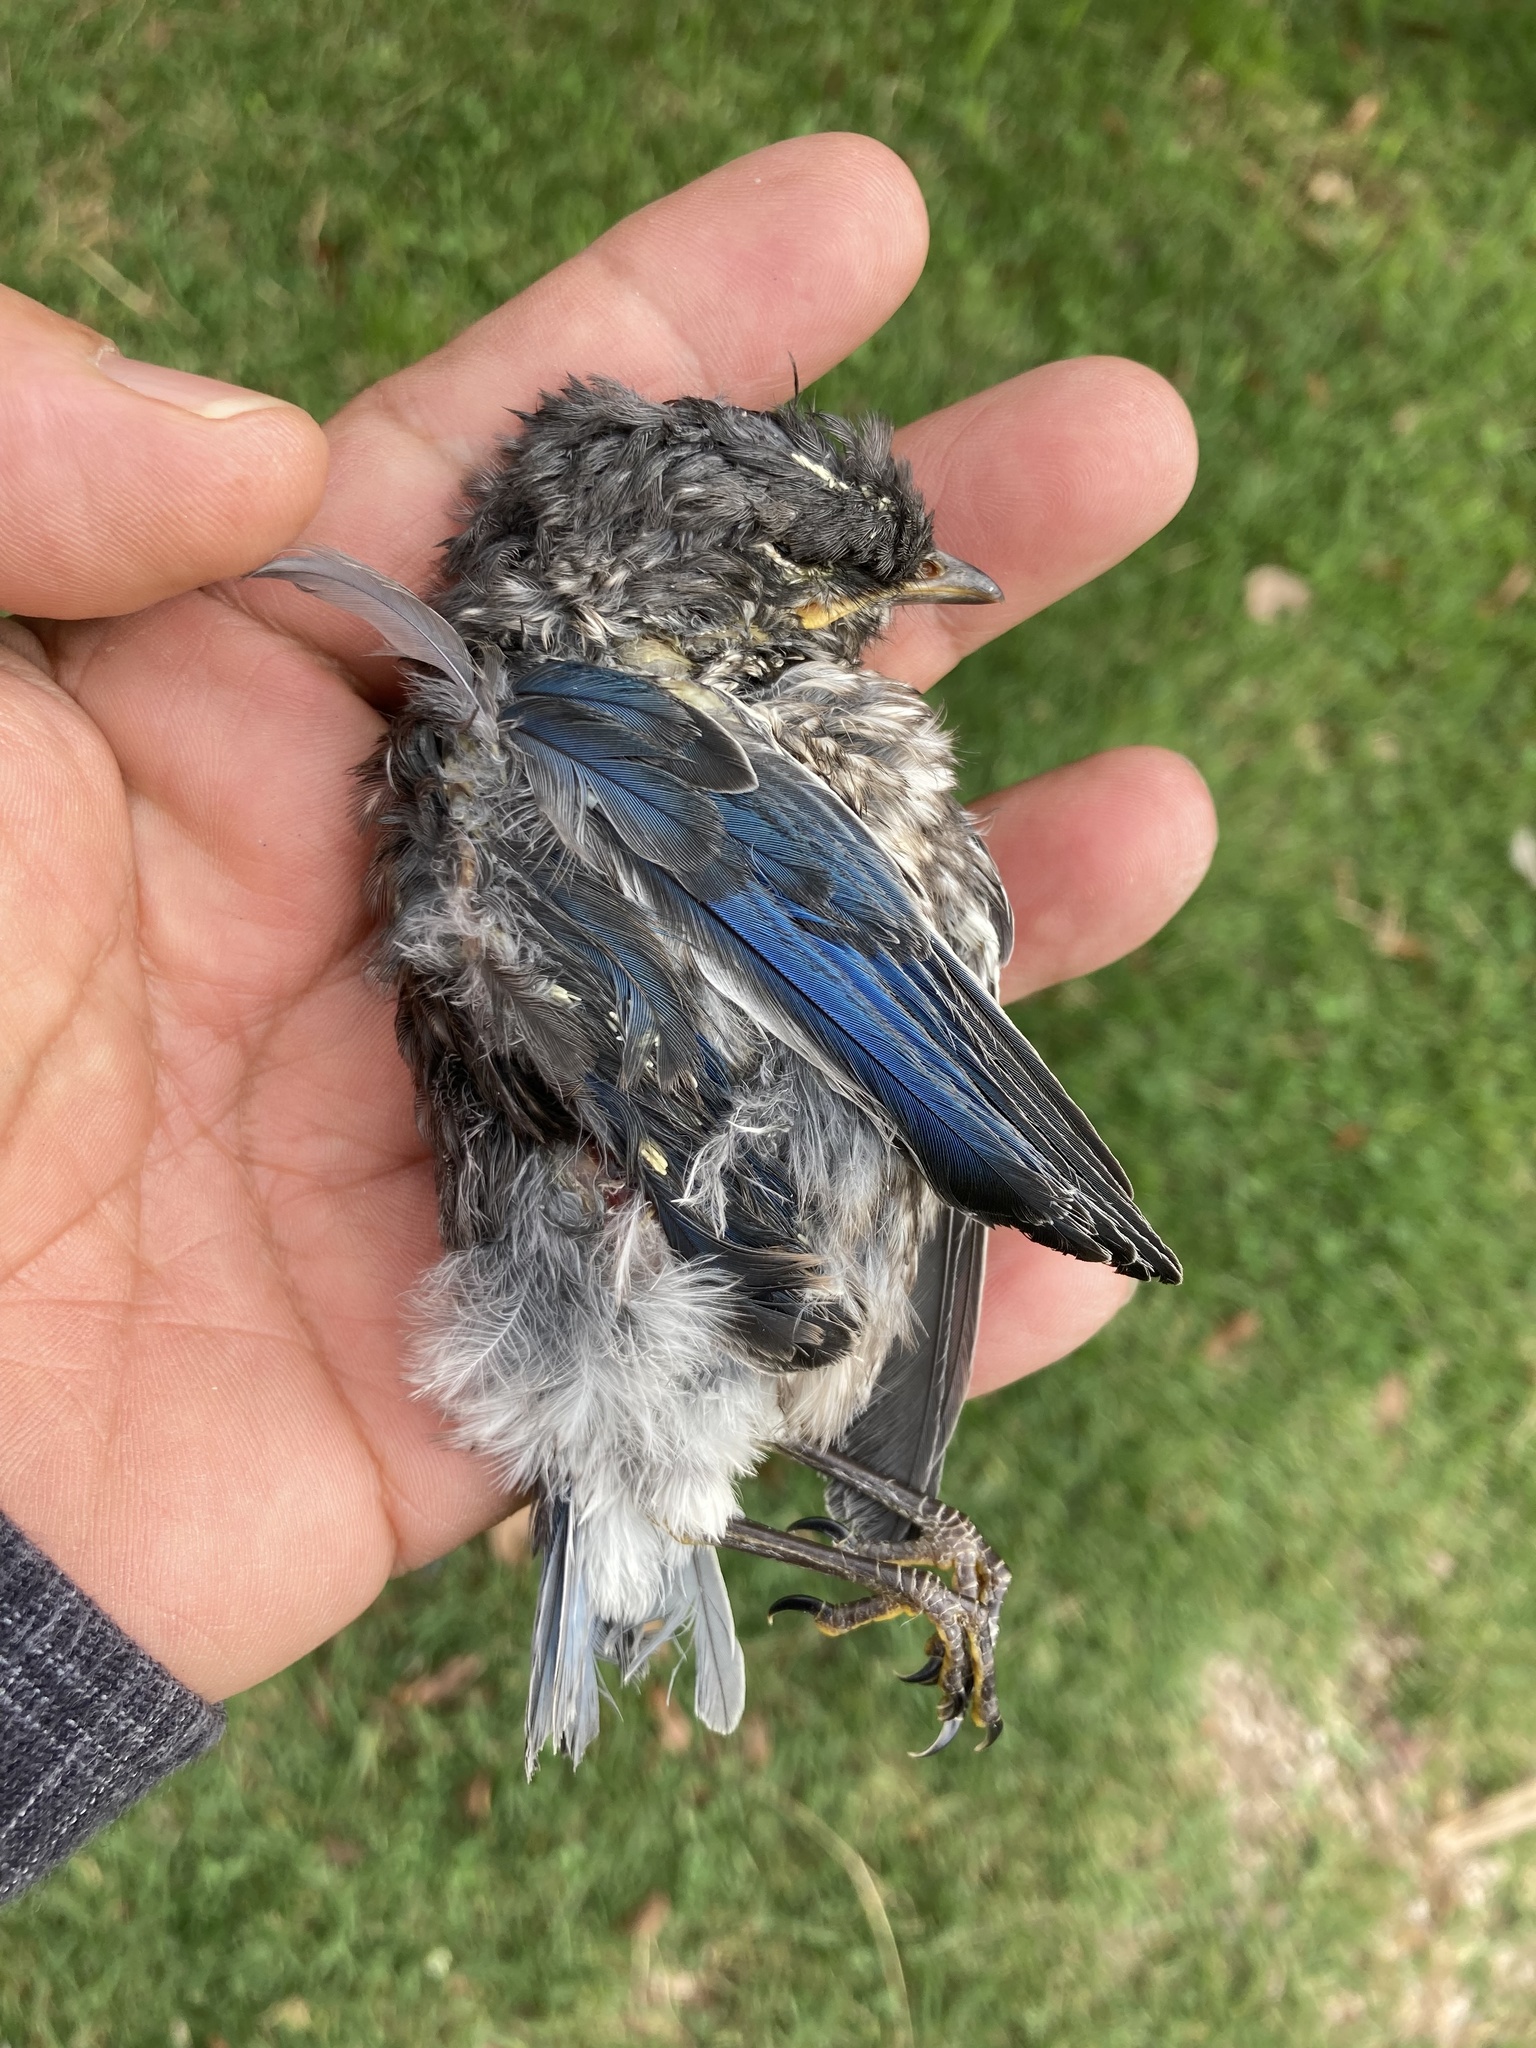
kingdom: Animalia
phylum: Chordata
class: Aves
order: Passeriformes
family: Turdidae
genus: Sialia
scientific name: Sialia sialis
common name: Eastern bluebird
